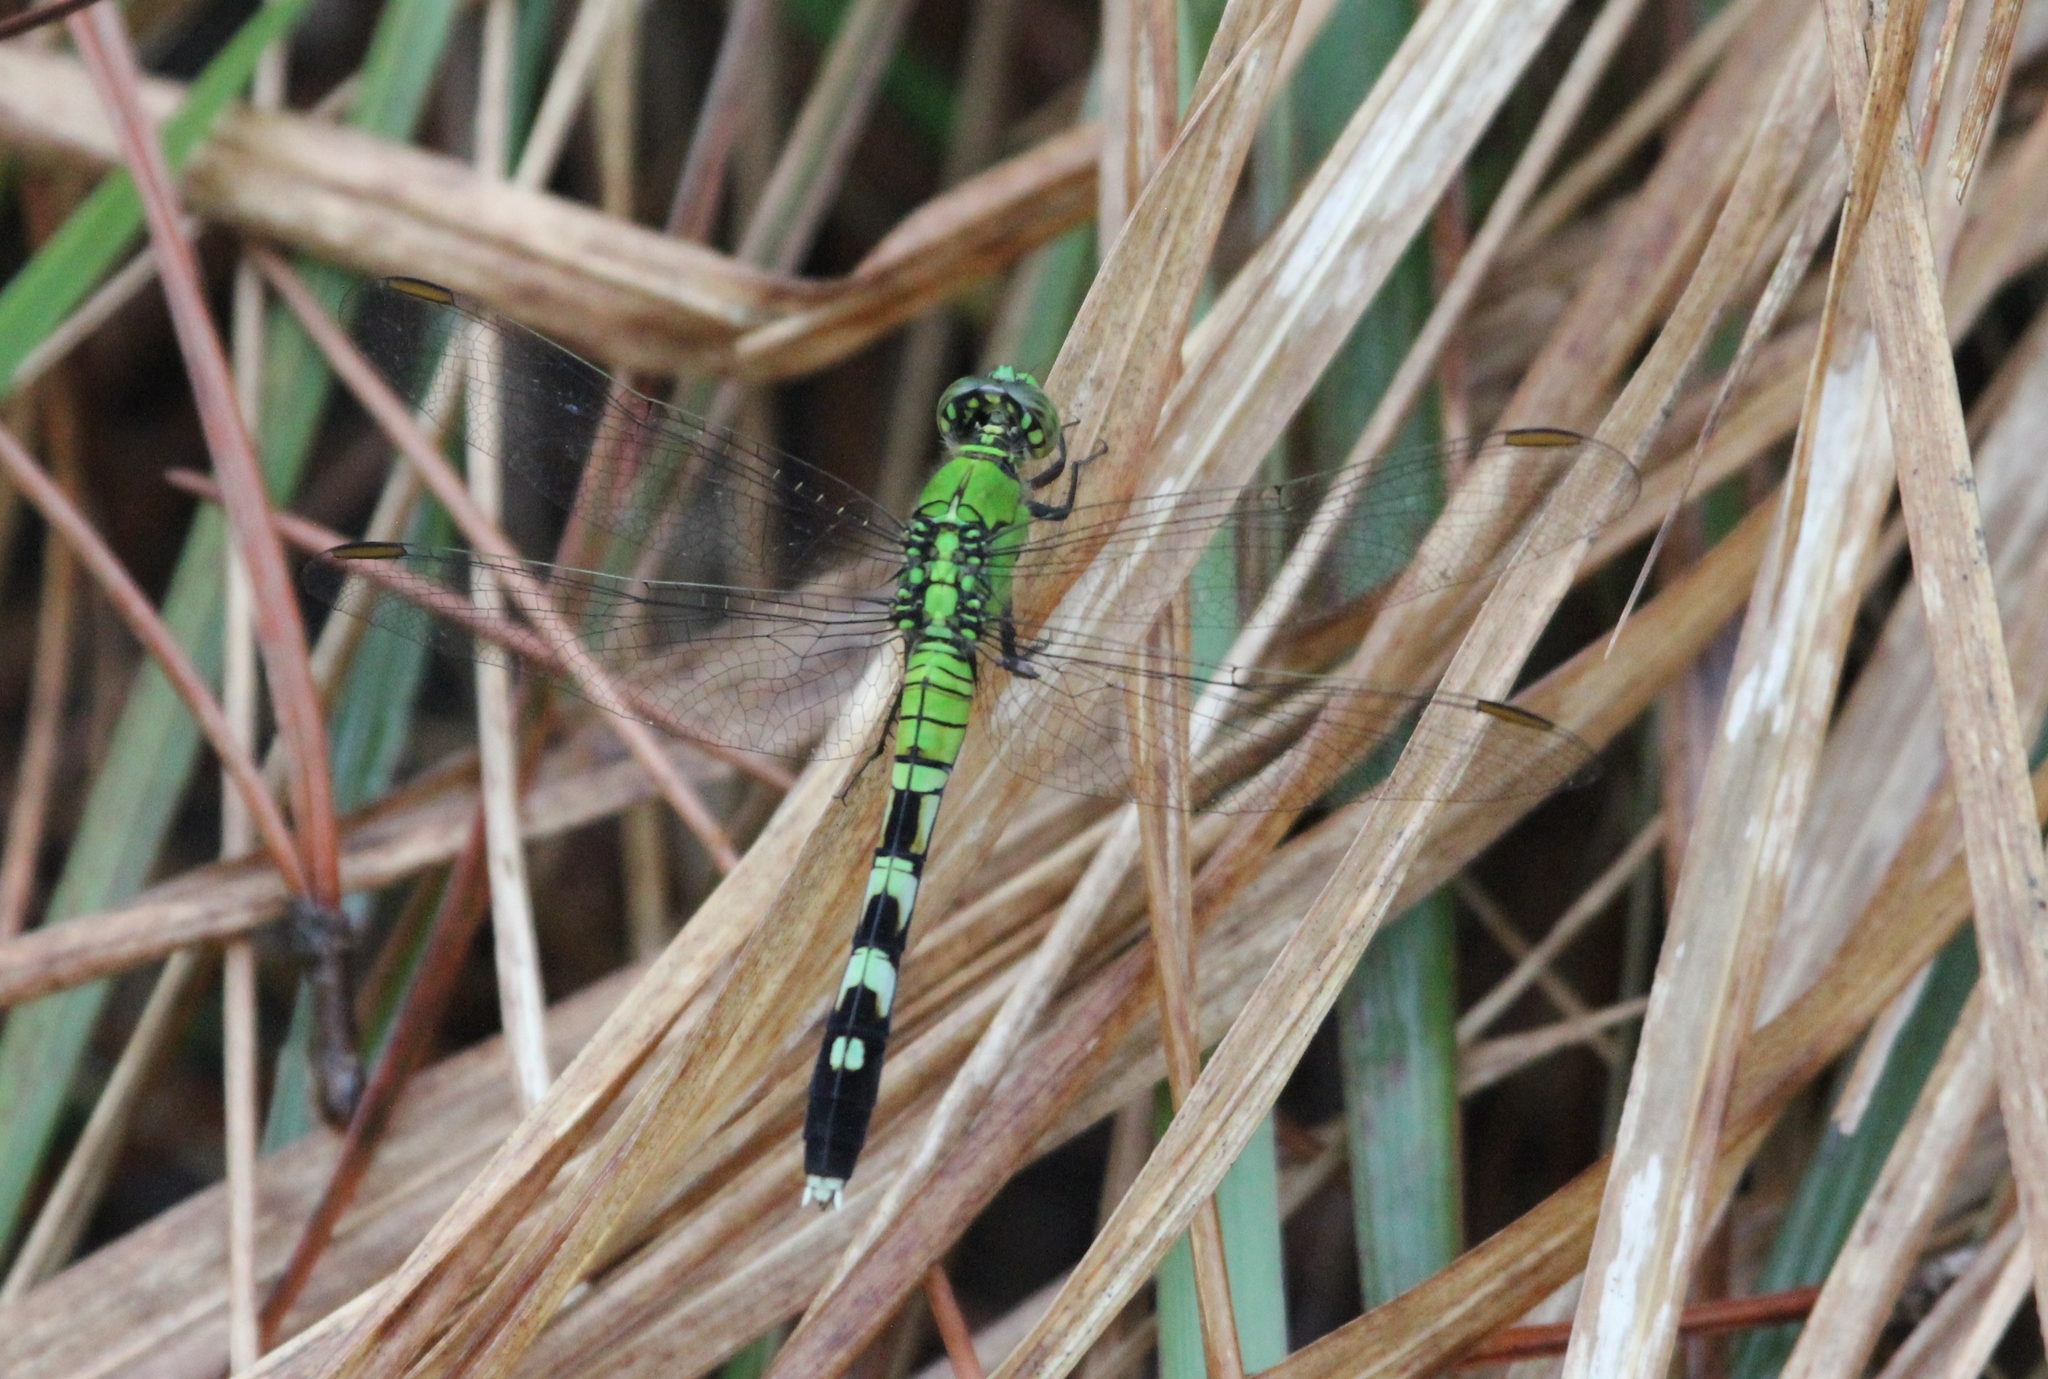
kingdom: Animalia
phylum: Arthropoda
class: Insecta
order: Odonata
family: Libellulidae
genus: Erythemis
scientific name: Erythemis simplicicollis
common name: Eastern pondhawk
